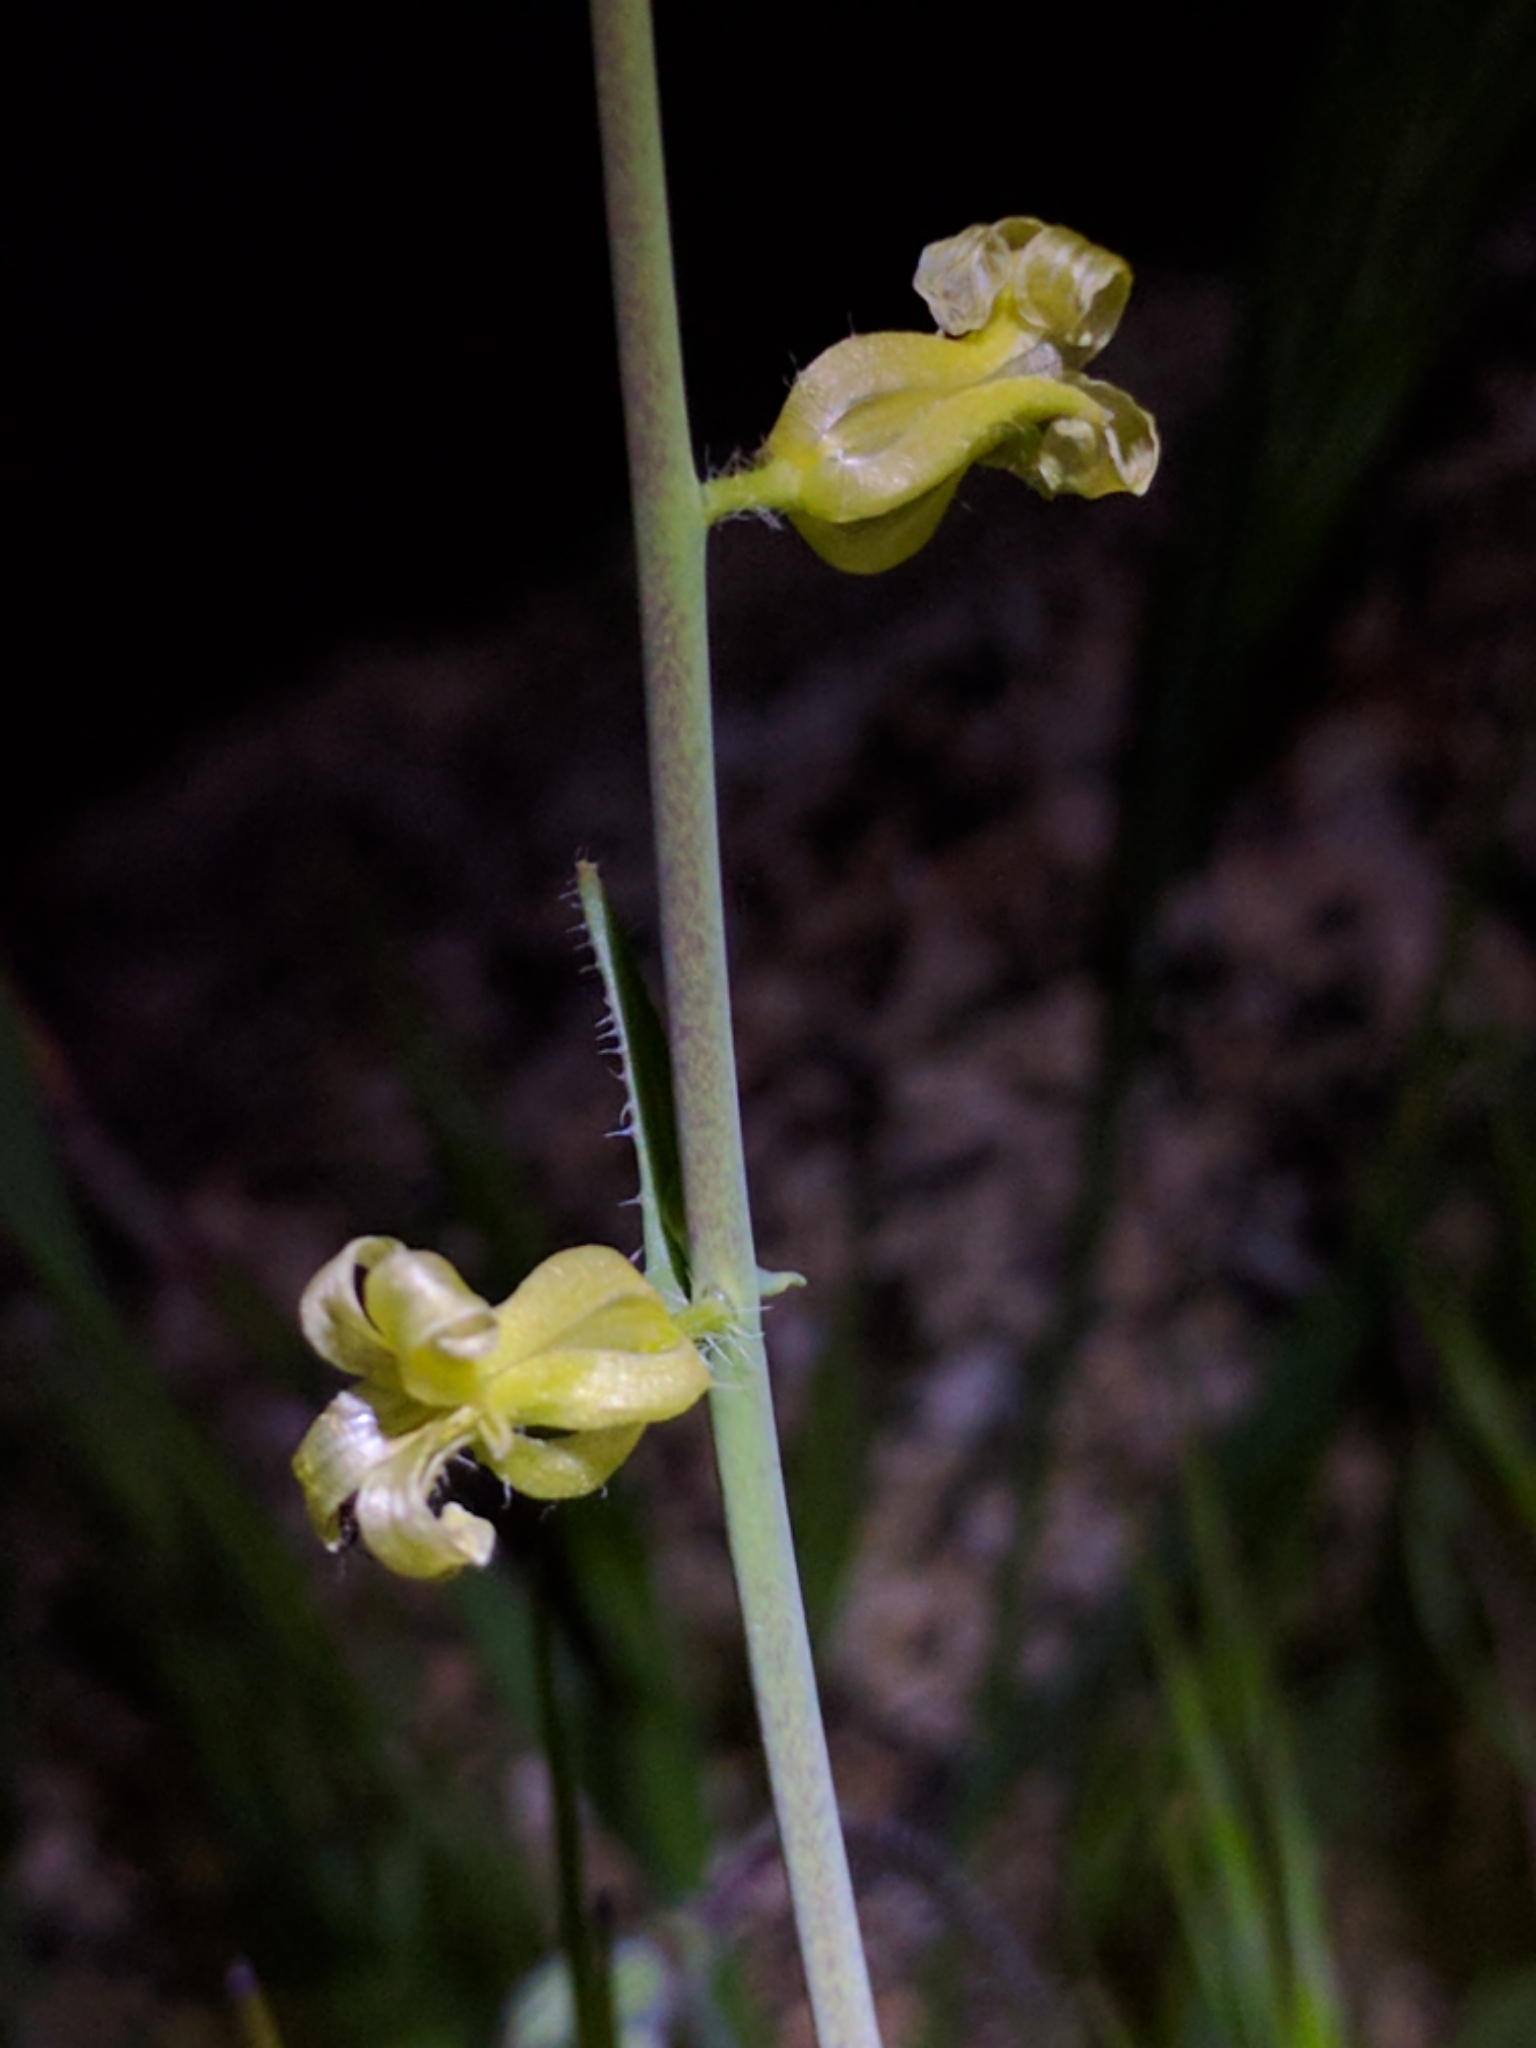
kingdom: Plantae
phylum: Tracheophyta
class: Magnoliopsida
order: Brassicales
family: Brassicaceae
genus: Streptanthus
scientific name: Streptanthus simulans
